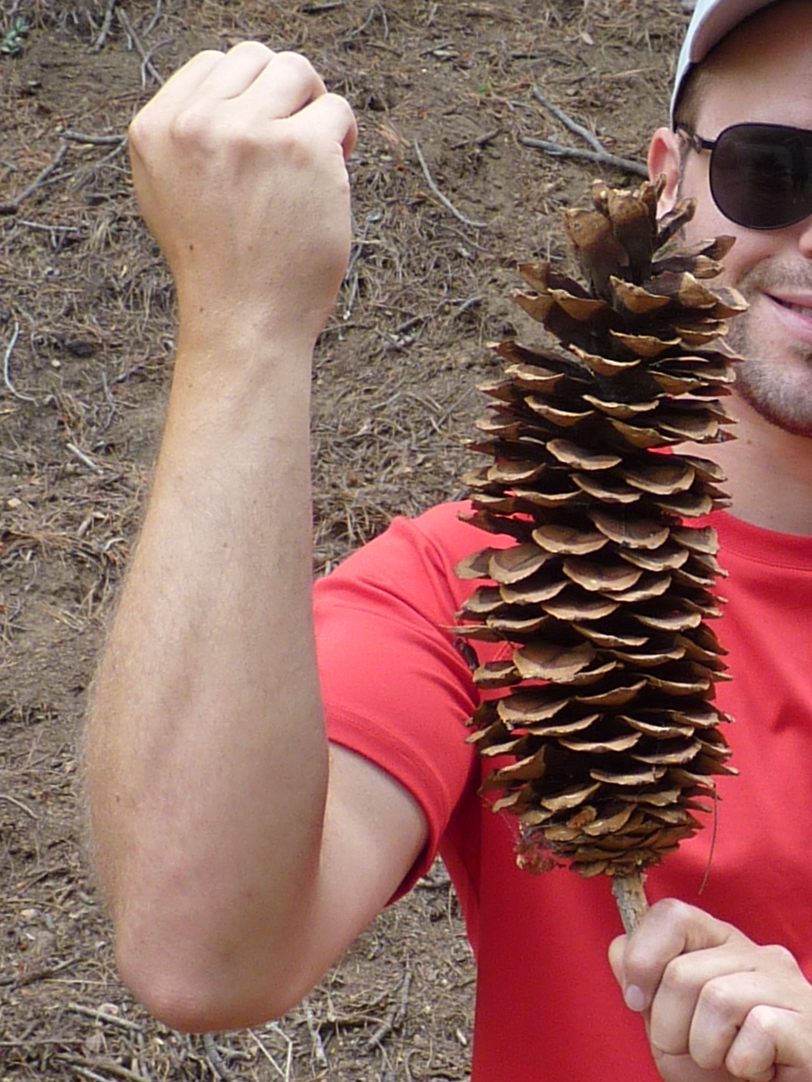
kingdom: Plantae
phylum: Tracheophyta
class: Pinopsida
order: Pinales
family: Pinaceae
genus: Pinus
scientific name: Pinus lambertiana
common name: Sugar pine
